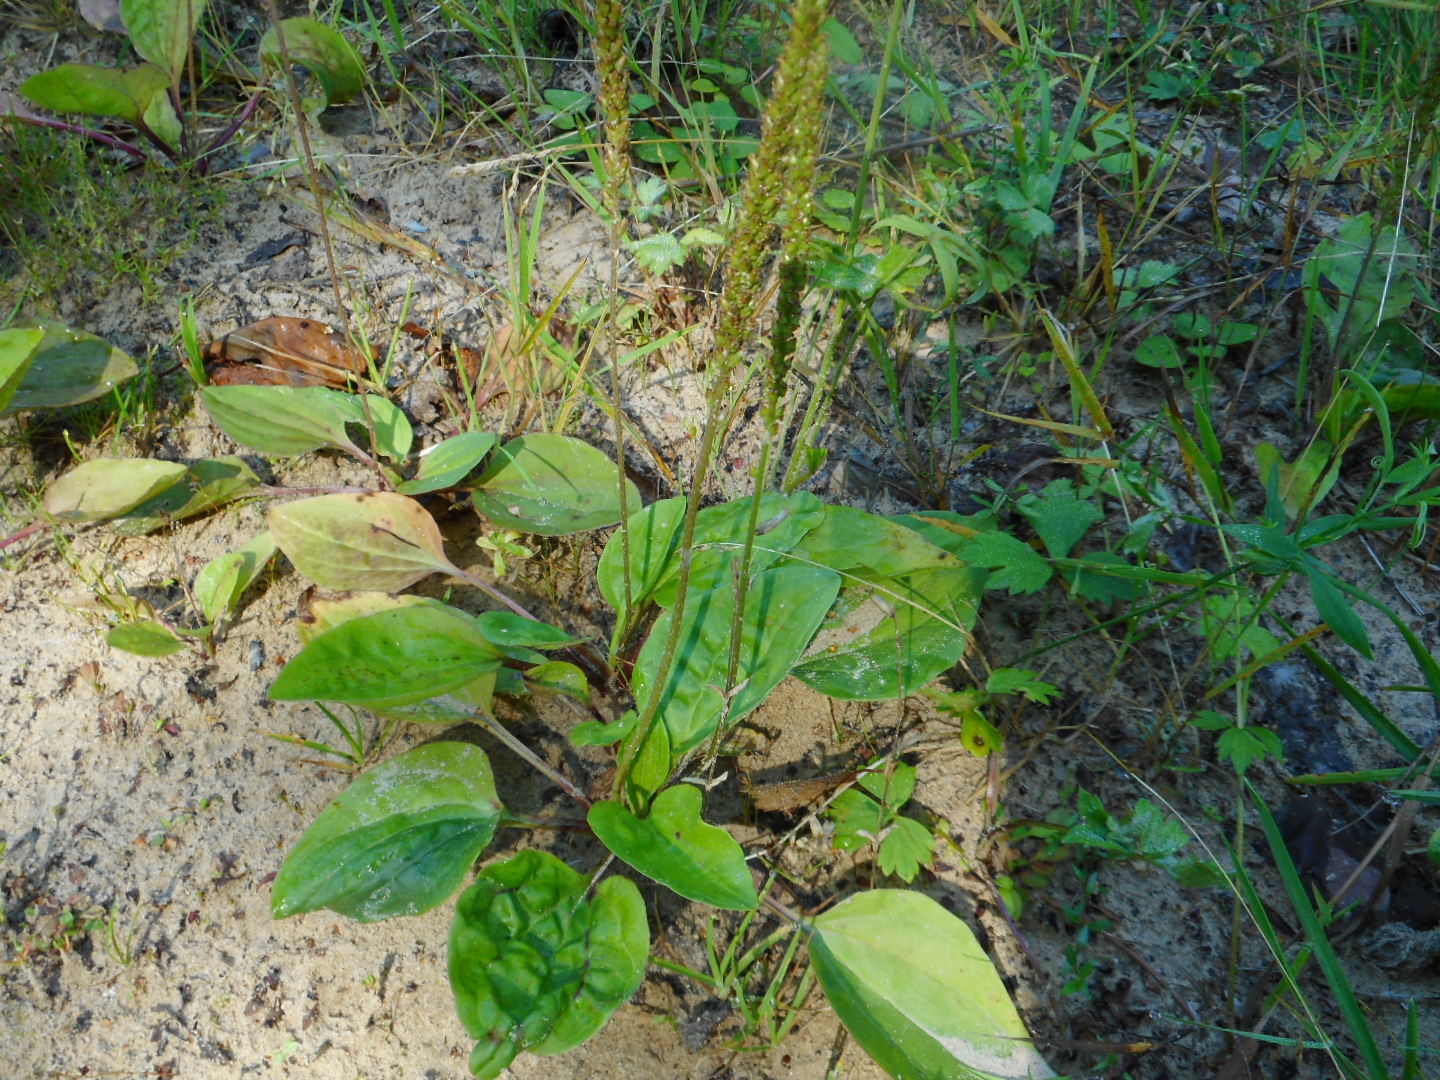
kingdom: Plantae
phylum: Tracheophyta
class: Magnoliopsida
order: Lamiales
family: Plantaginaceae
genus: Plantago
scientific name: Plantago major
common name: Common plantain
